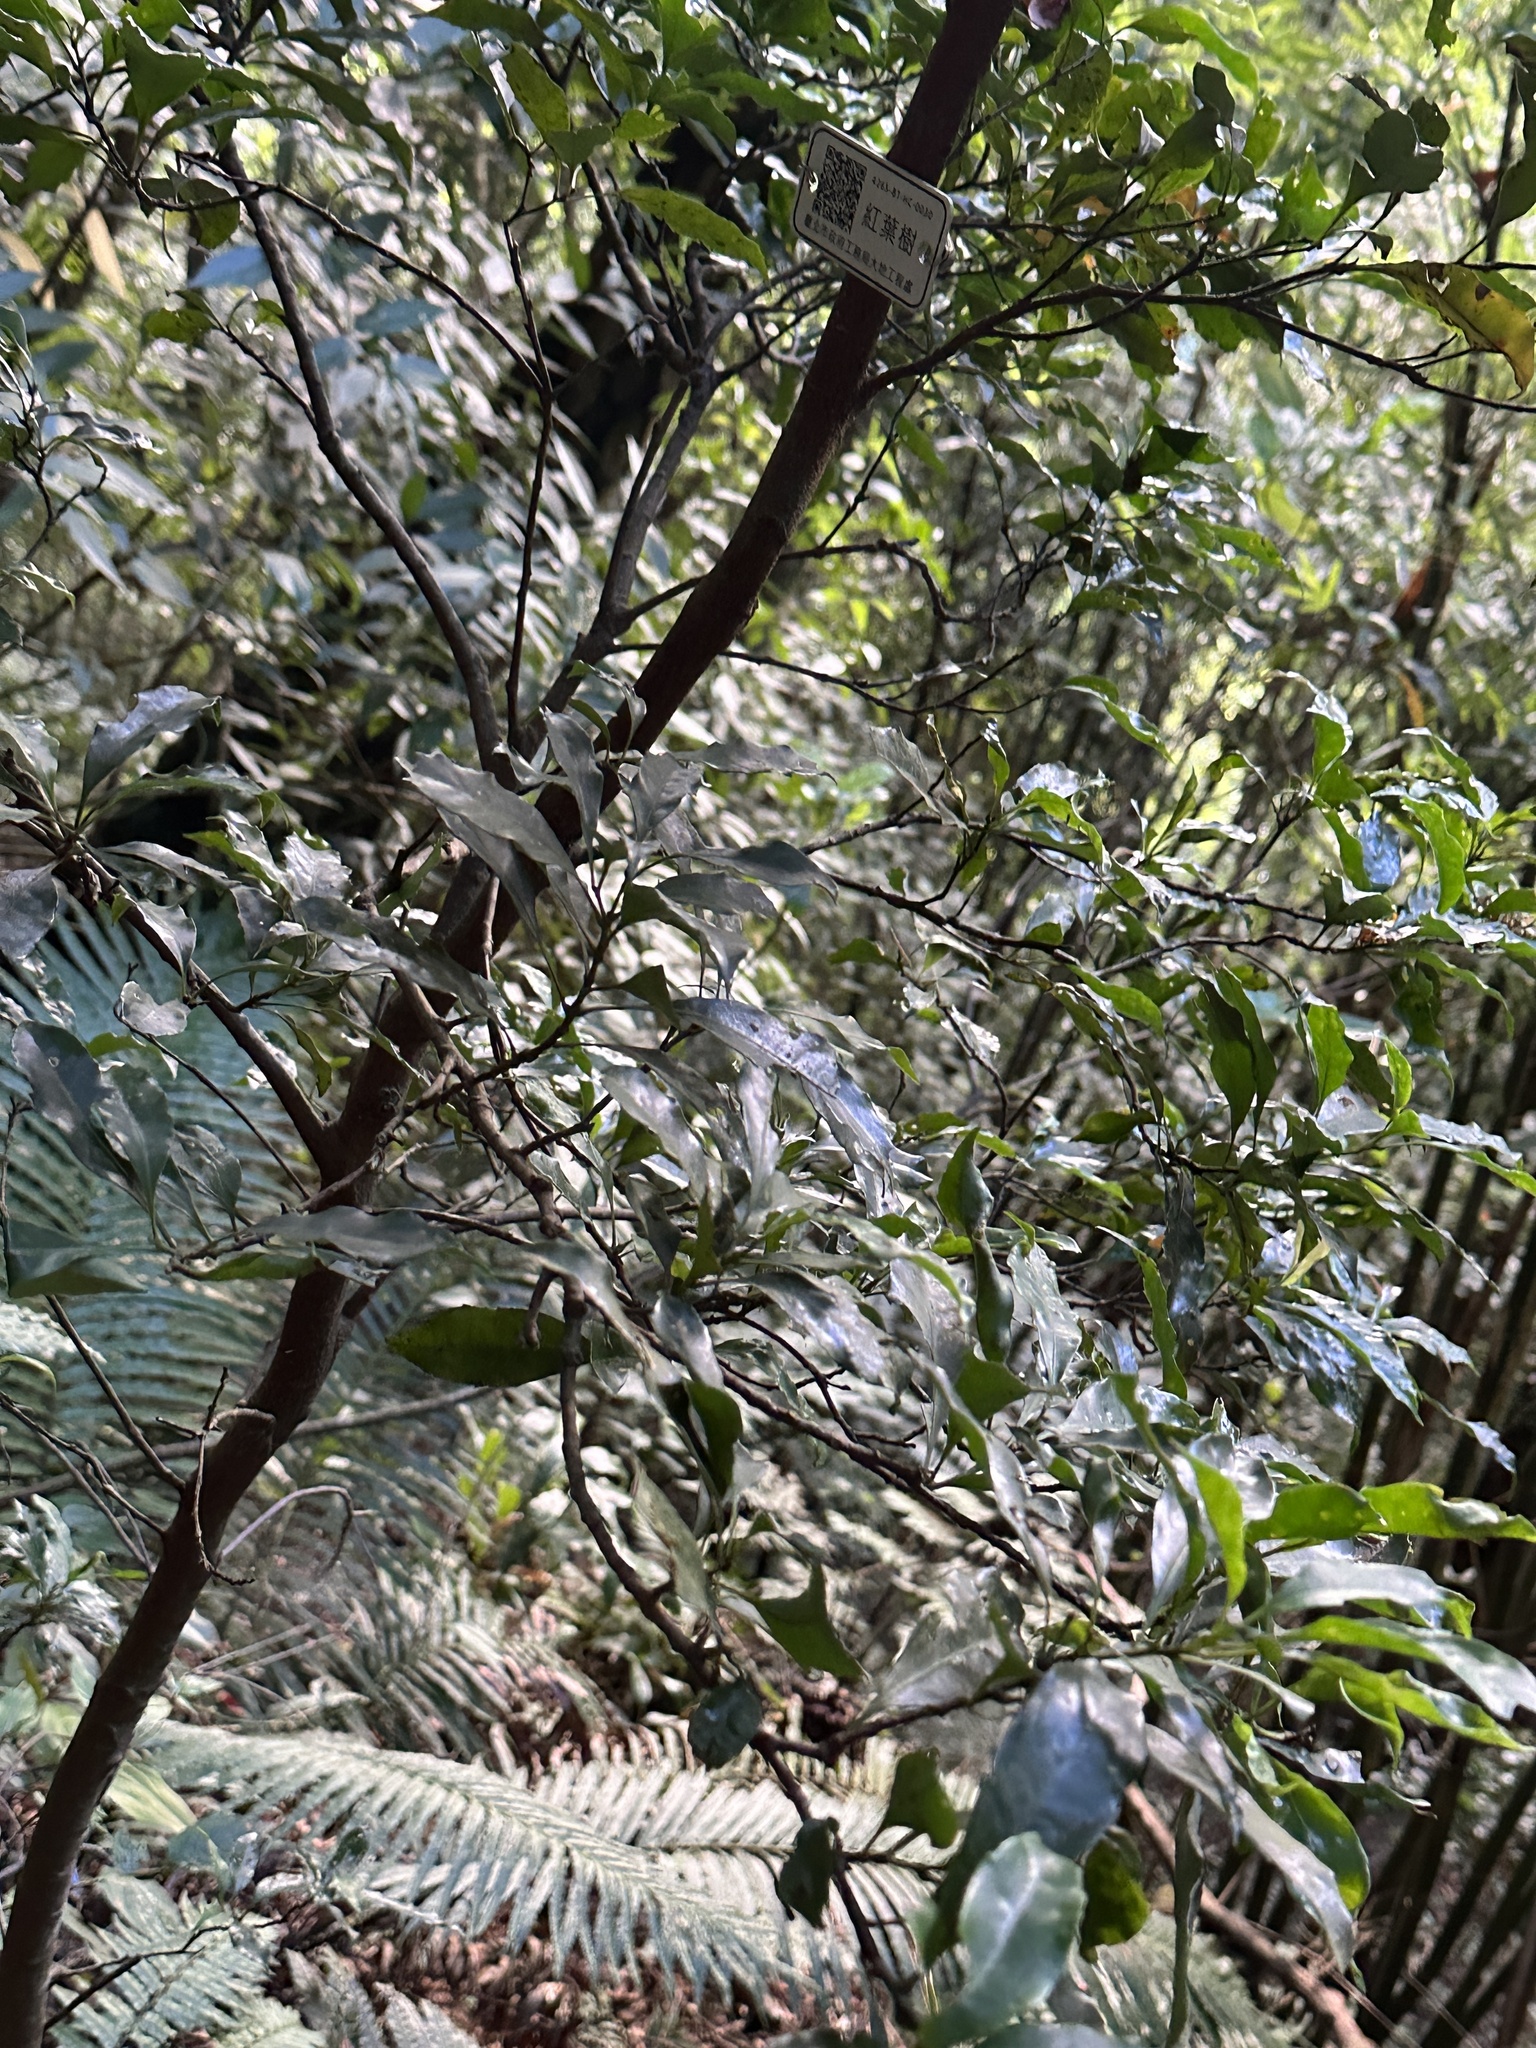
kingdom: Plantae
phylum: Tracheophyta
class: Magnoliopsida
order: Proteales
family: Proteaceae
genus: Helicia
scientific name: Helicia cochinchinensis
